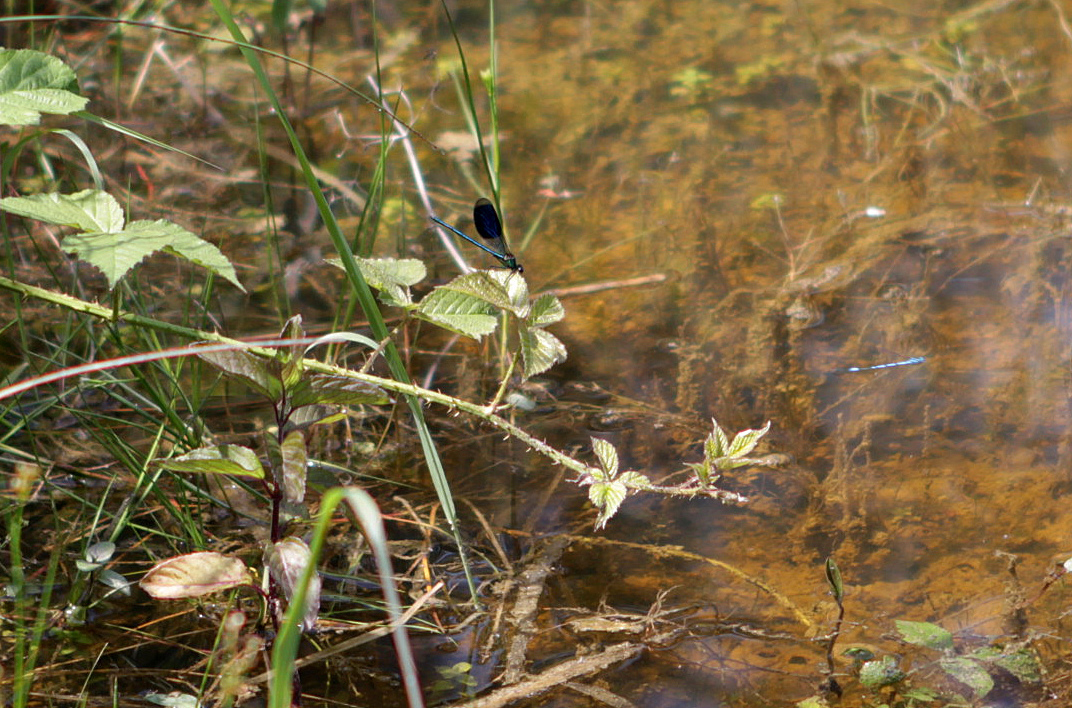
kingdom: Animalia
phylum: Arthropoda
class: Insecta
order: Odonata
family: Calopterygidae
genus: Calopteryx
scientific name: Calopteryx splendens
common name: Banded demoiselle
